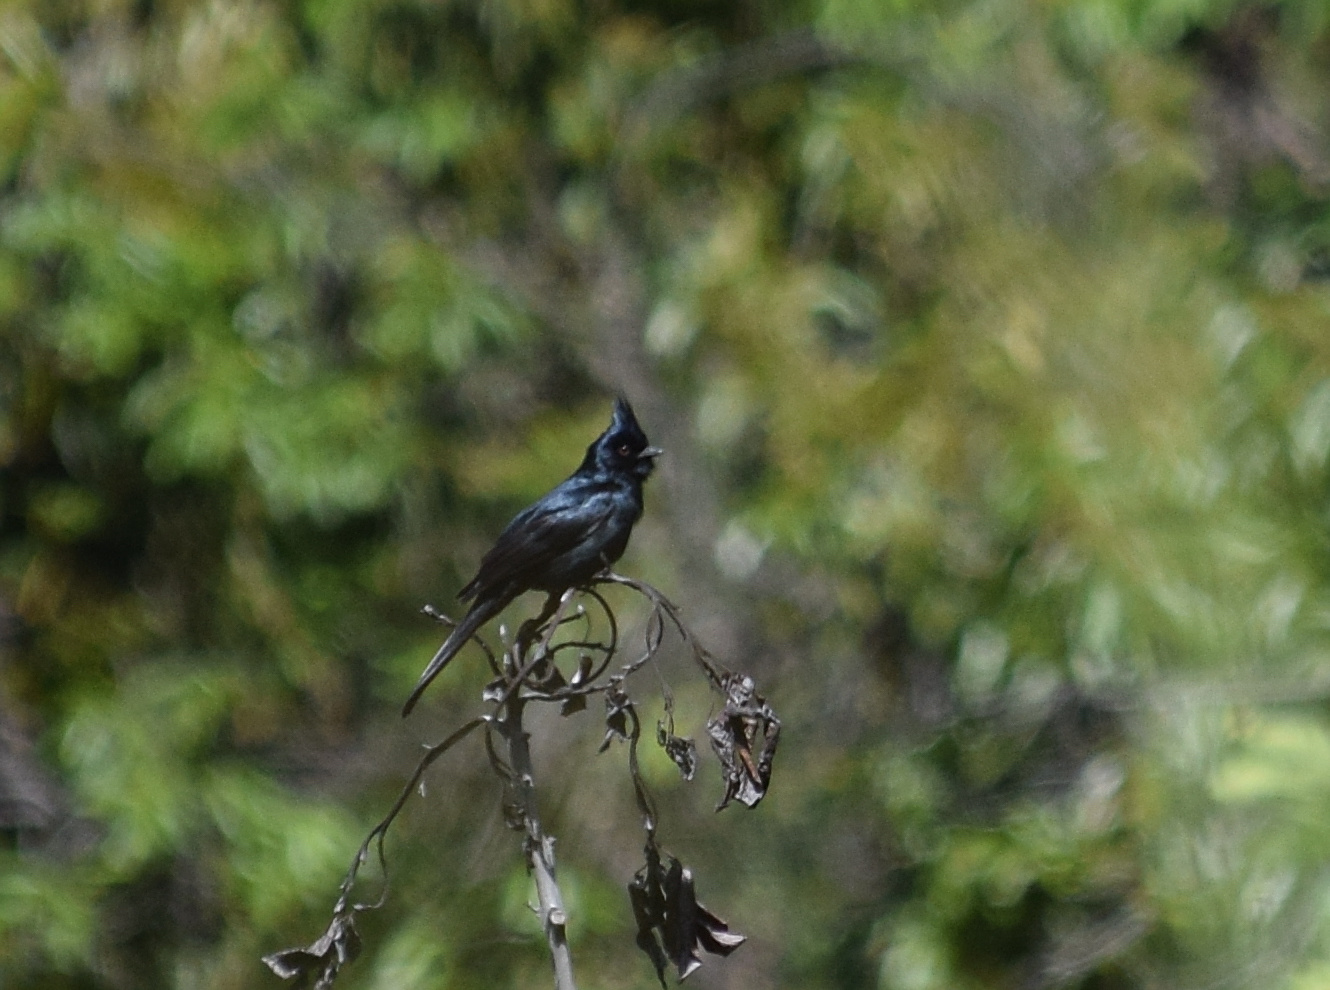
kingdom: Animalia
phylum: Chordata
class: Aves
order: Passeriformes
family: Ptilogonatidae
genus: Phainopepla
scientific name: Phainopepla nitens
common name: Phainopepla
